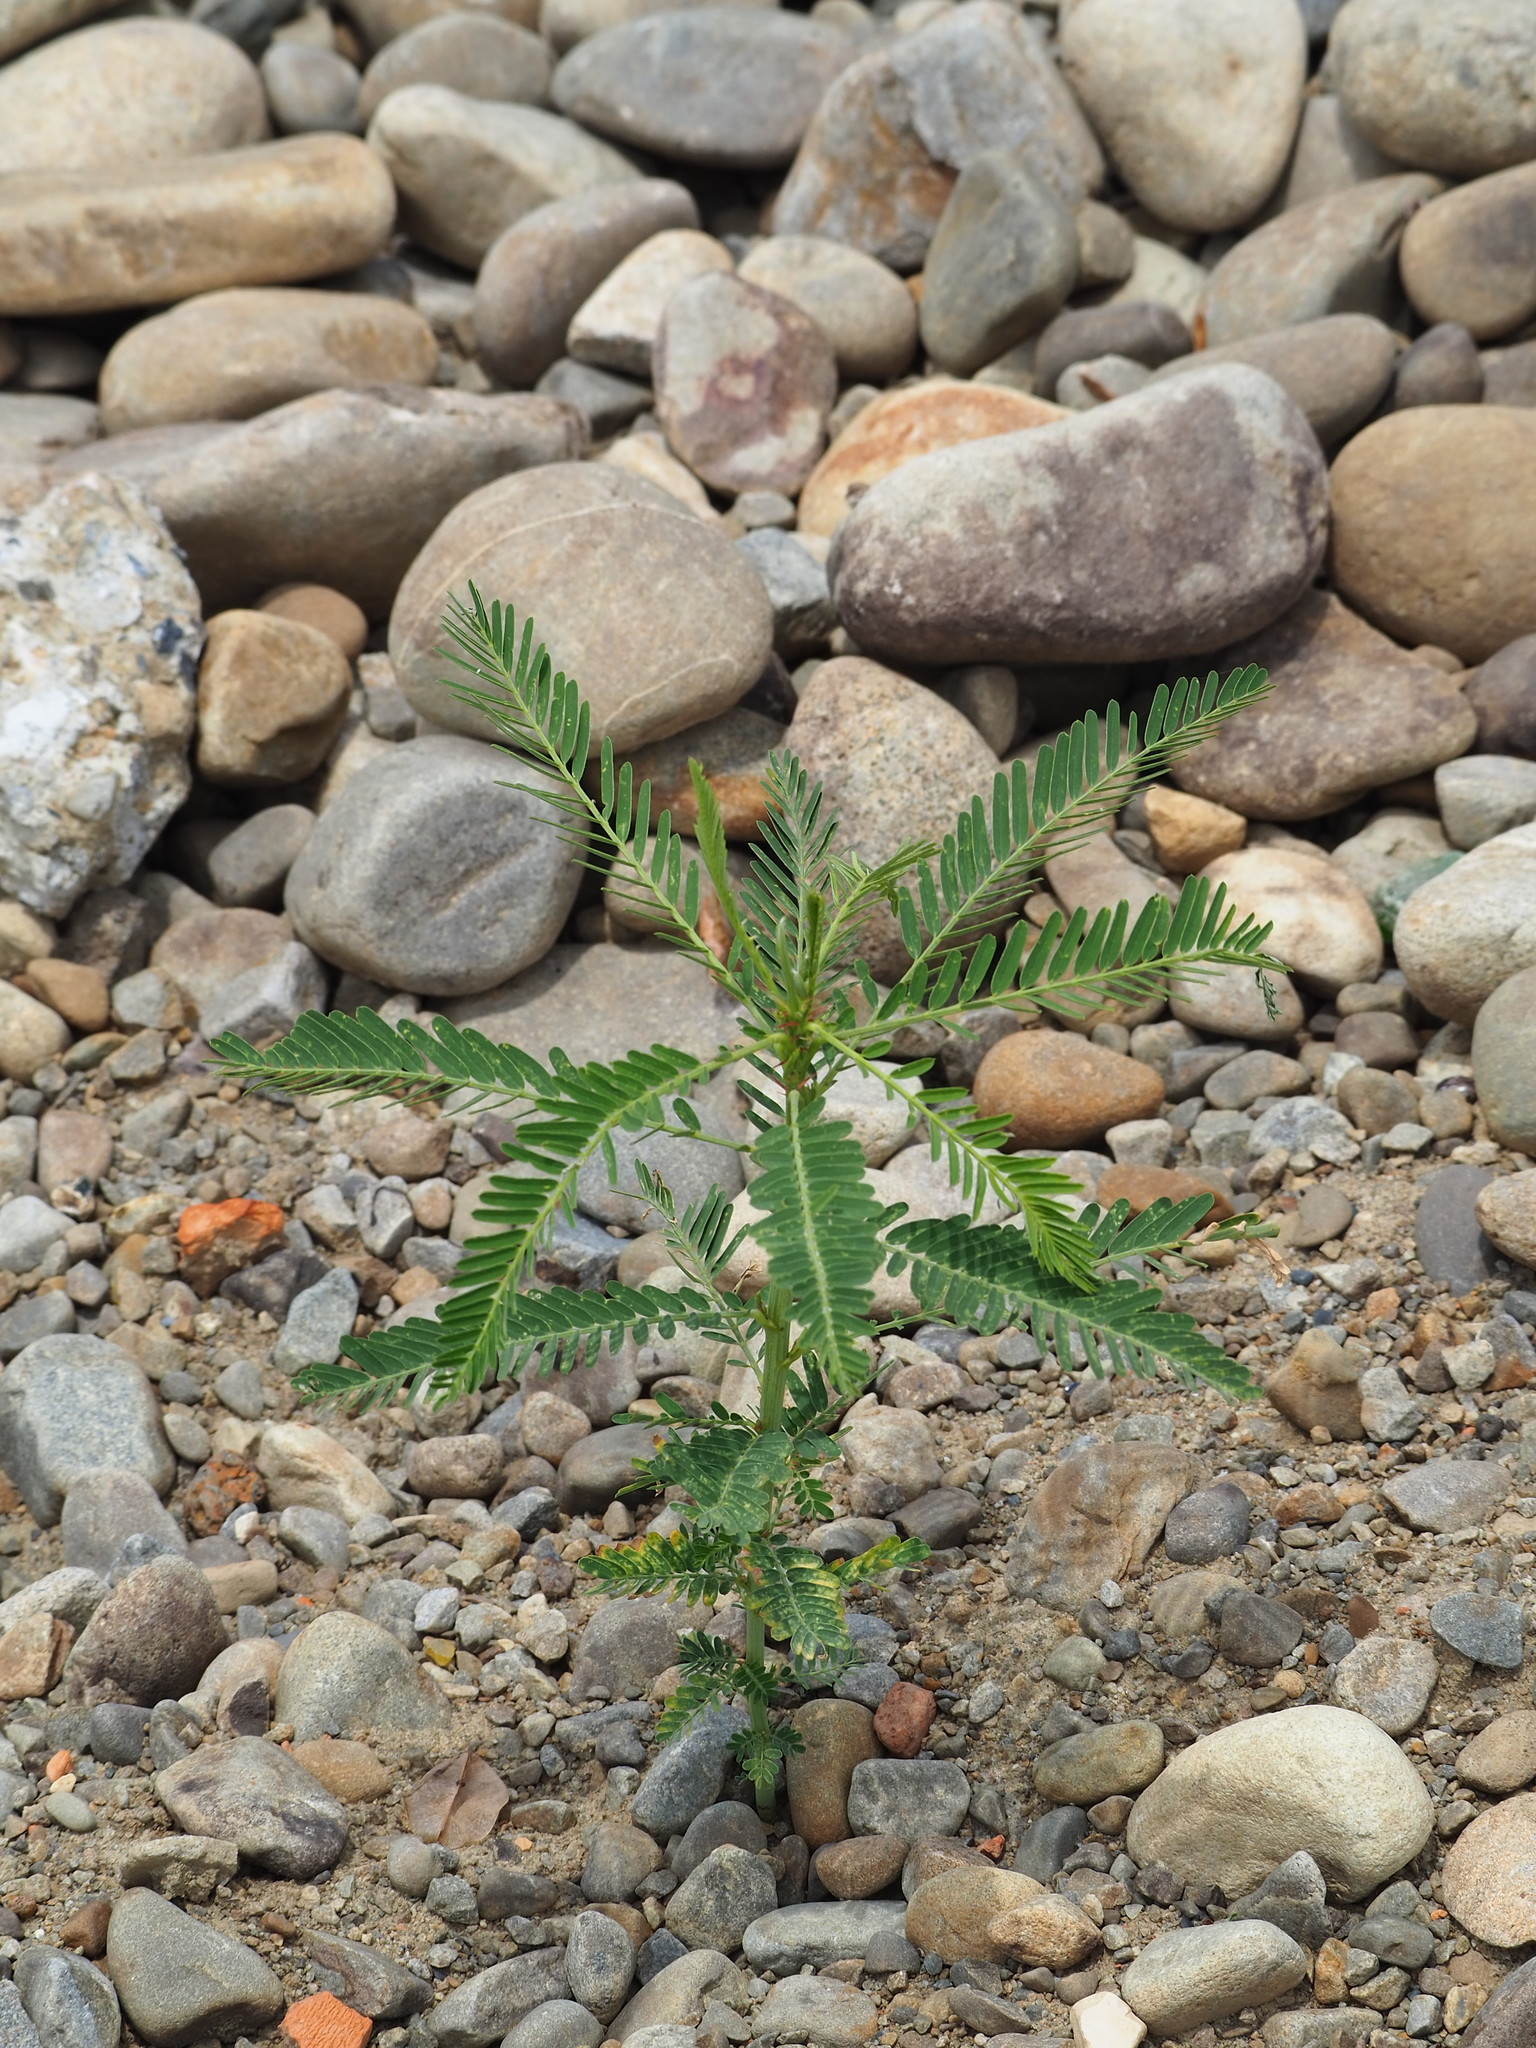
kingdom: Plantae
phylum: Tracheophyta
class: Magnoliopsida
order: Fabales
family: Fabaceae
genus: Sesbania
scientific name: Sesbania cannabina
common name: Canicha
